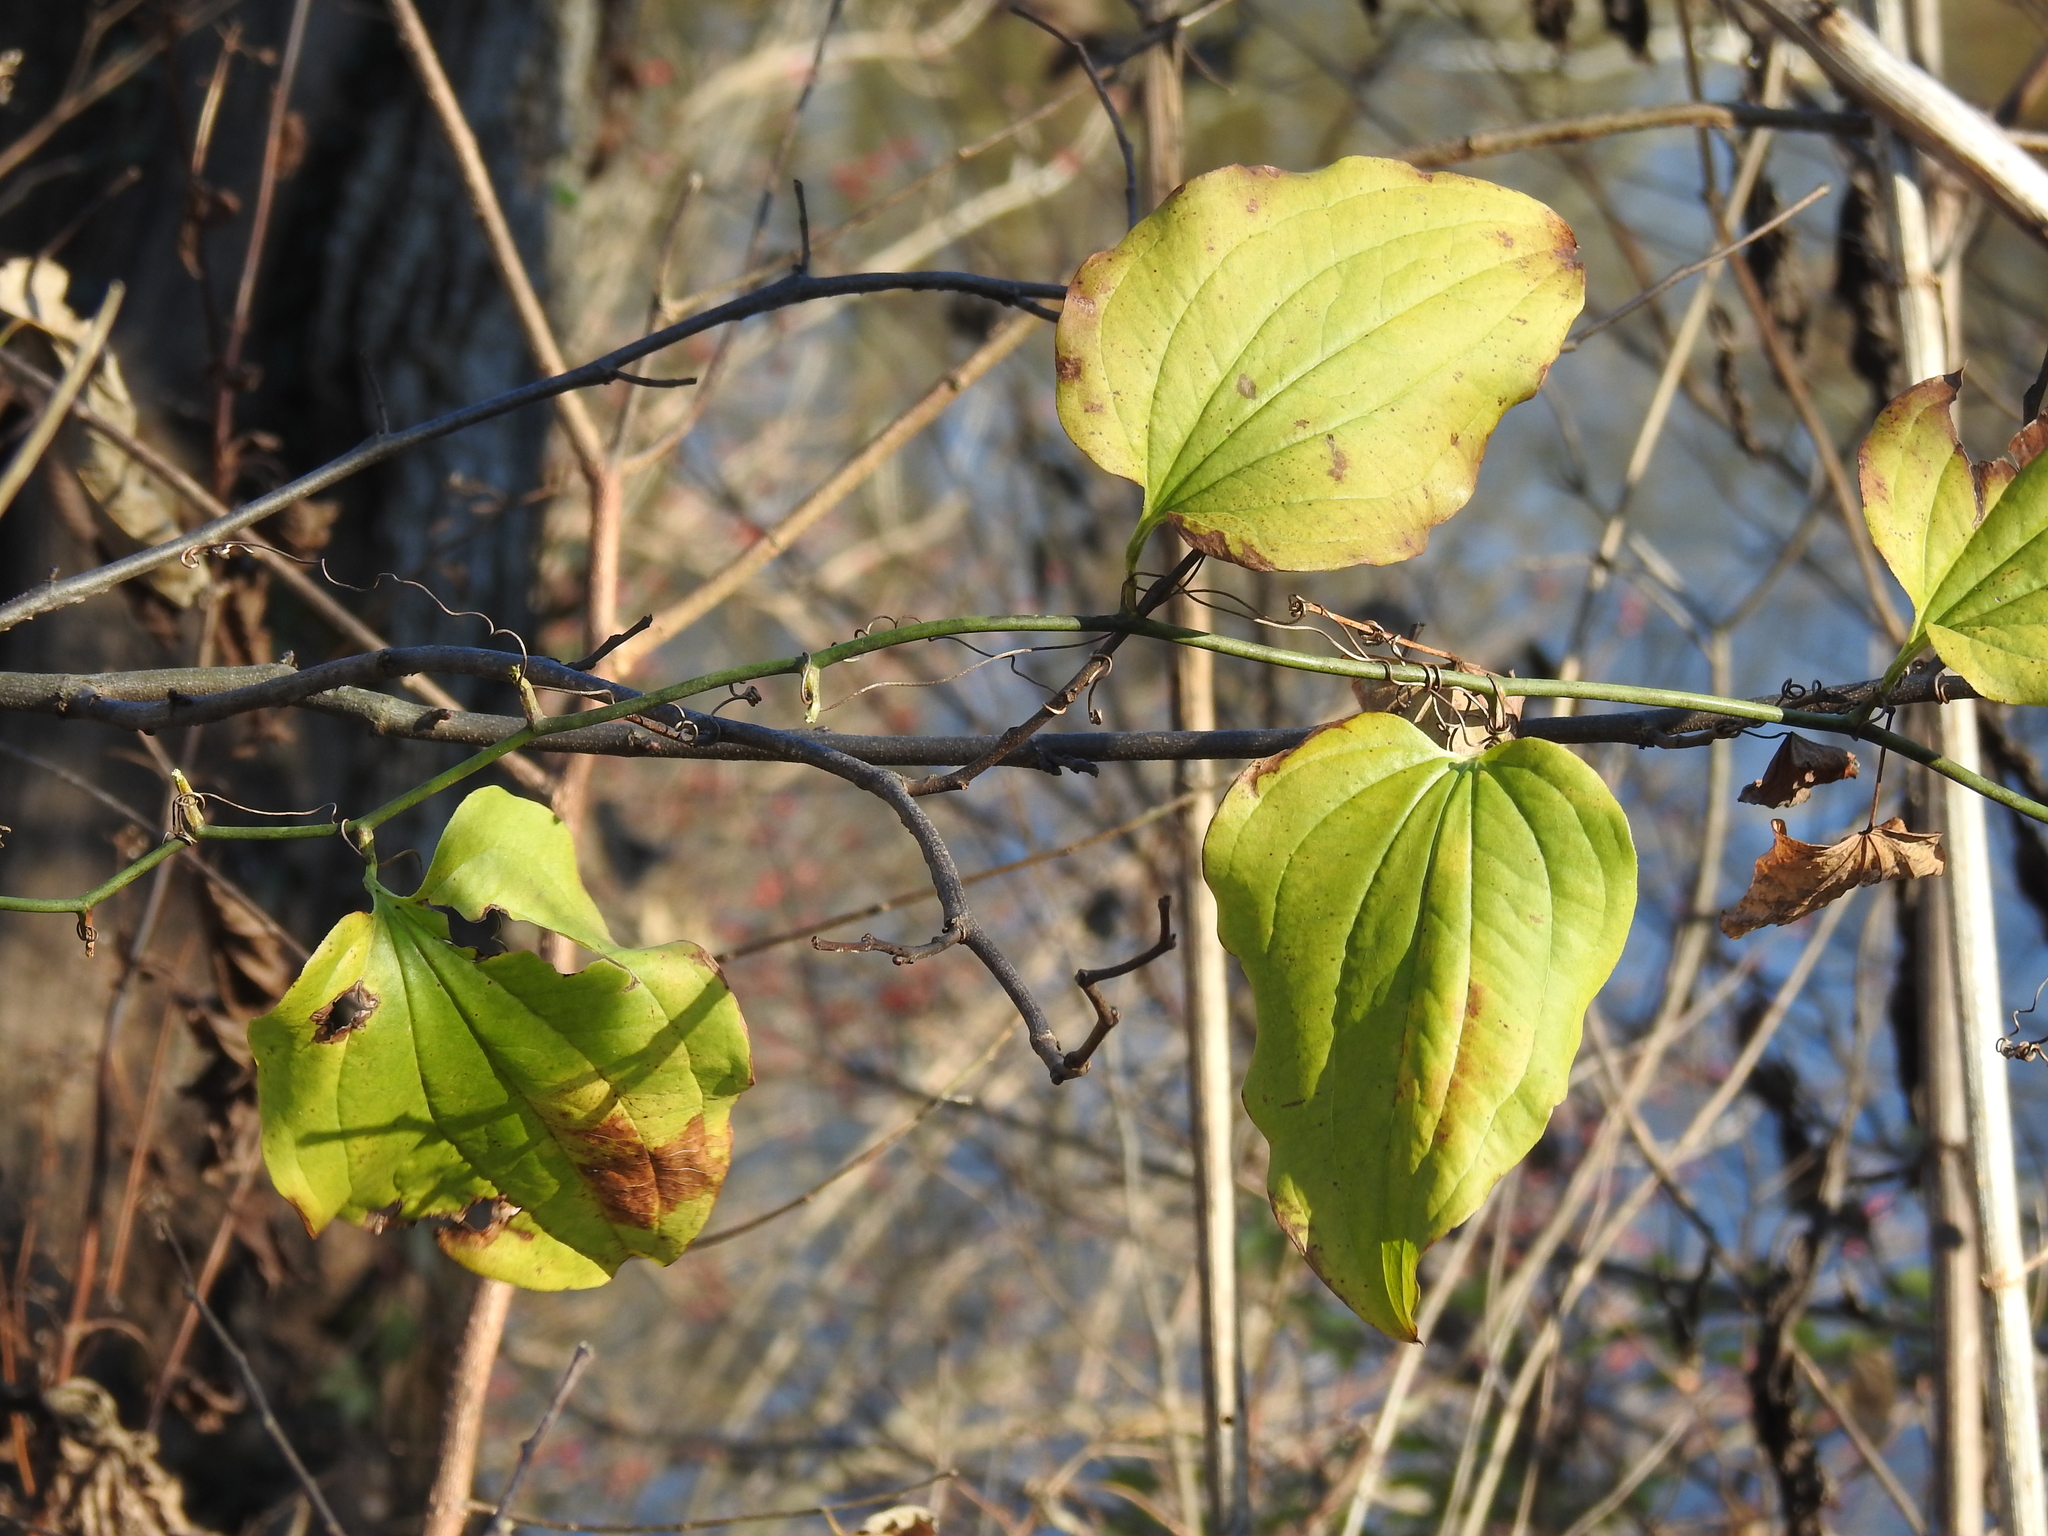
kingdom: Plantae
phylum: Tracheophyta
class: Liliopsida
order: Liliales
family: Smilacaceae
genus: Smilax
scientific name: Smilax tamnoides
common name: Hellfetter
